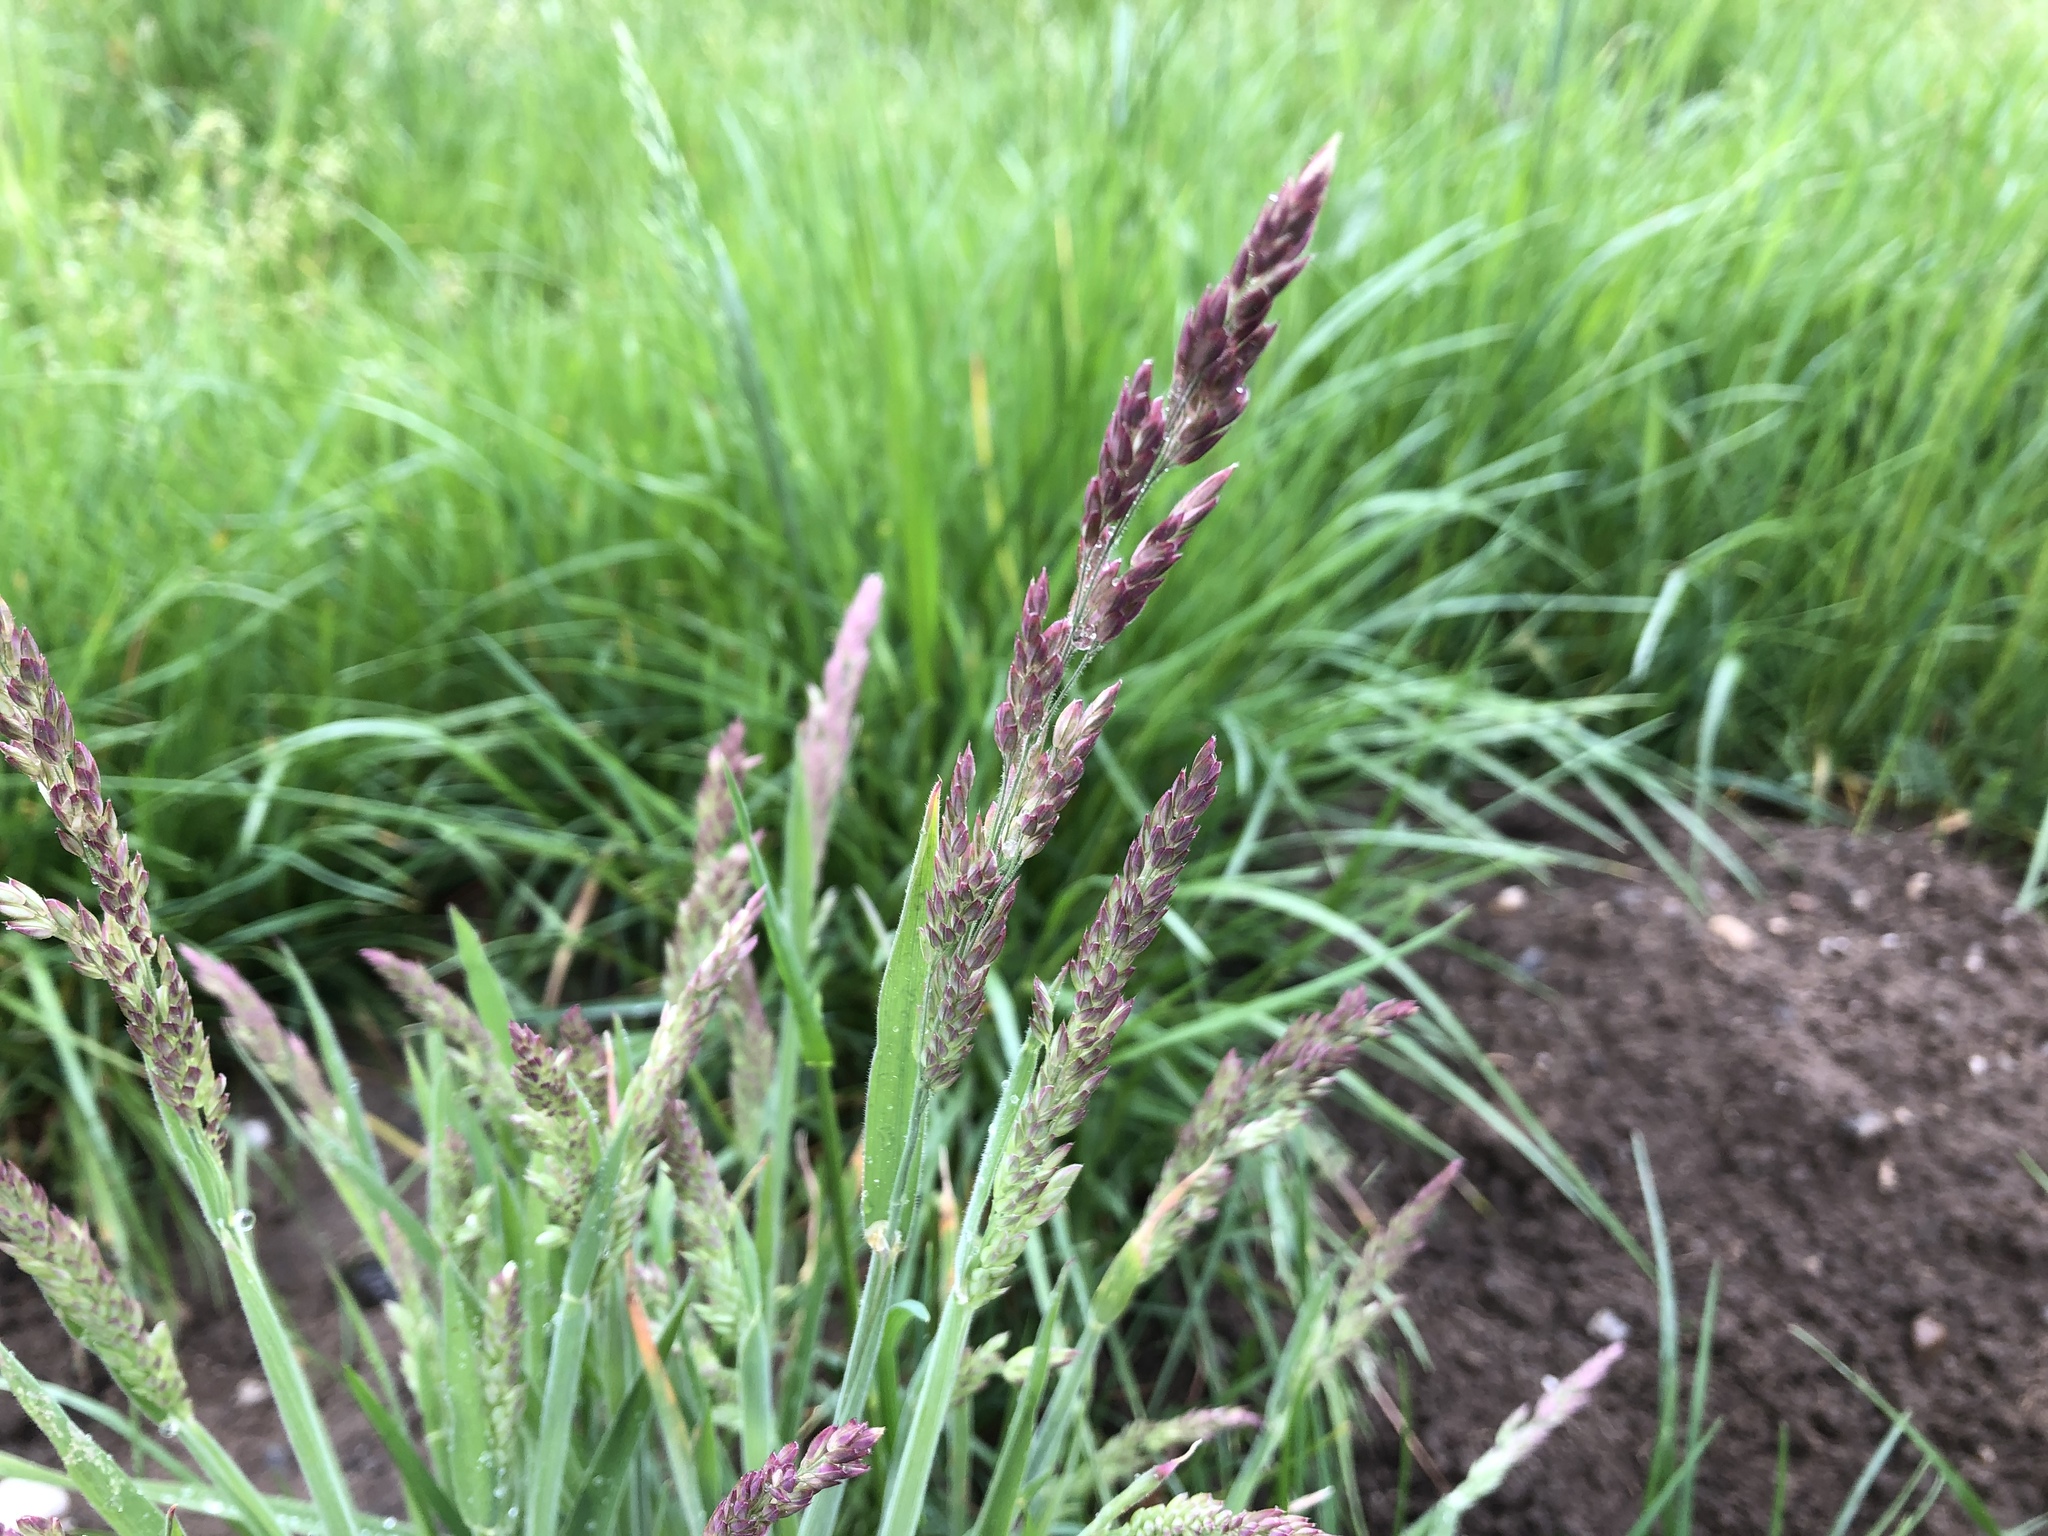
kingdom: Plantae
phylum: Tracheophyta
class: Liliopsida
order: Poales
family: Poaceae
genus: Holcus
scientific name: Holcus lanatus
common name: Yorkshire-fog
